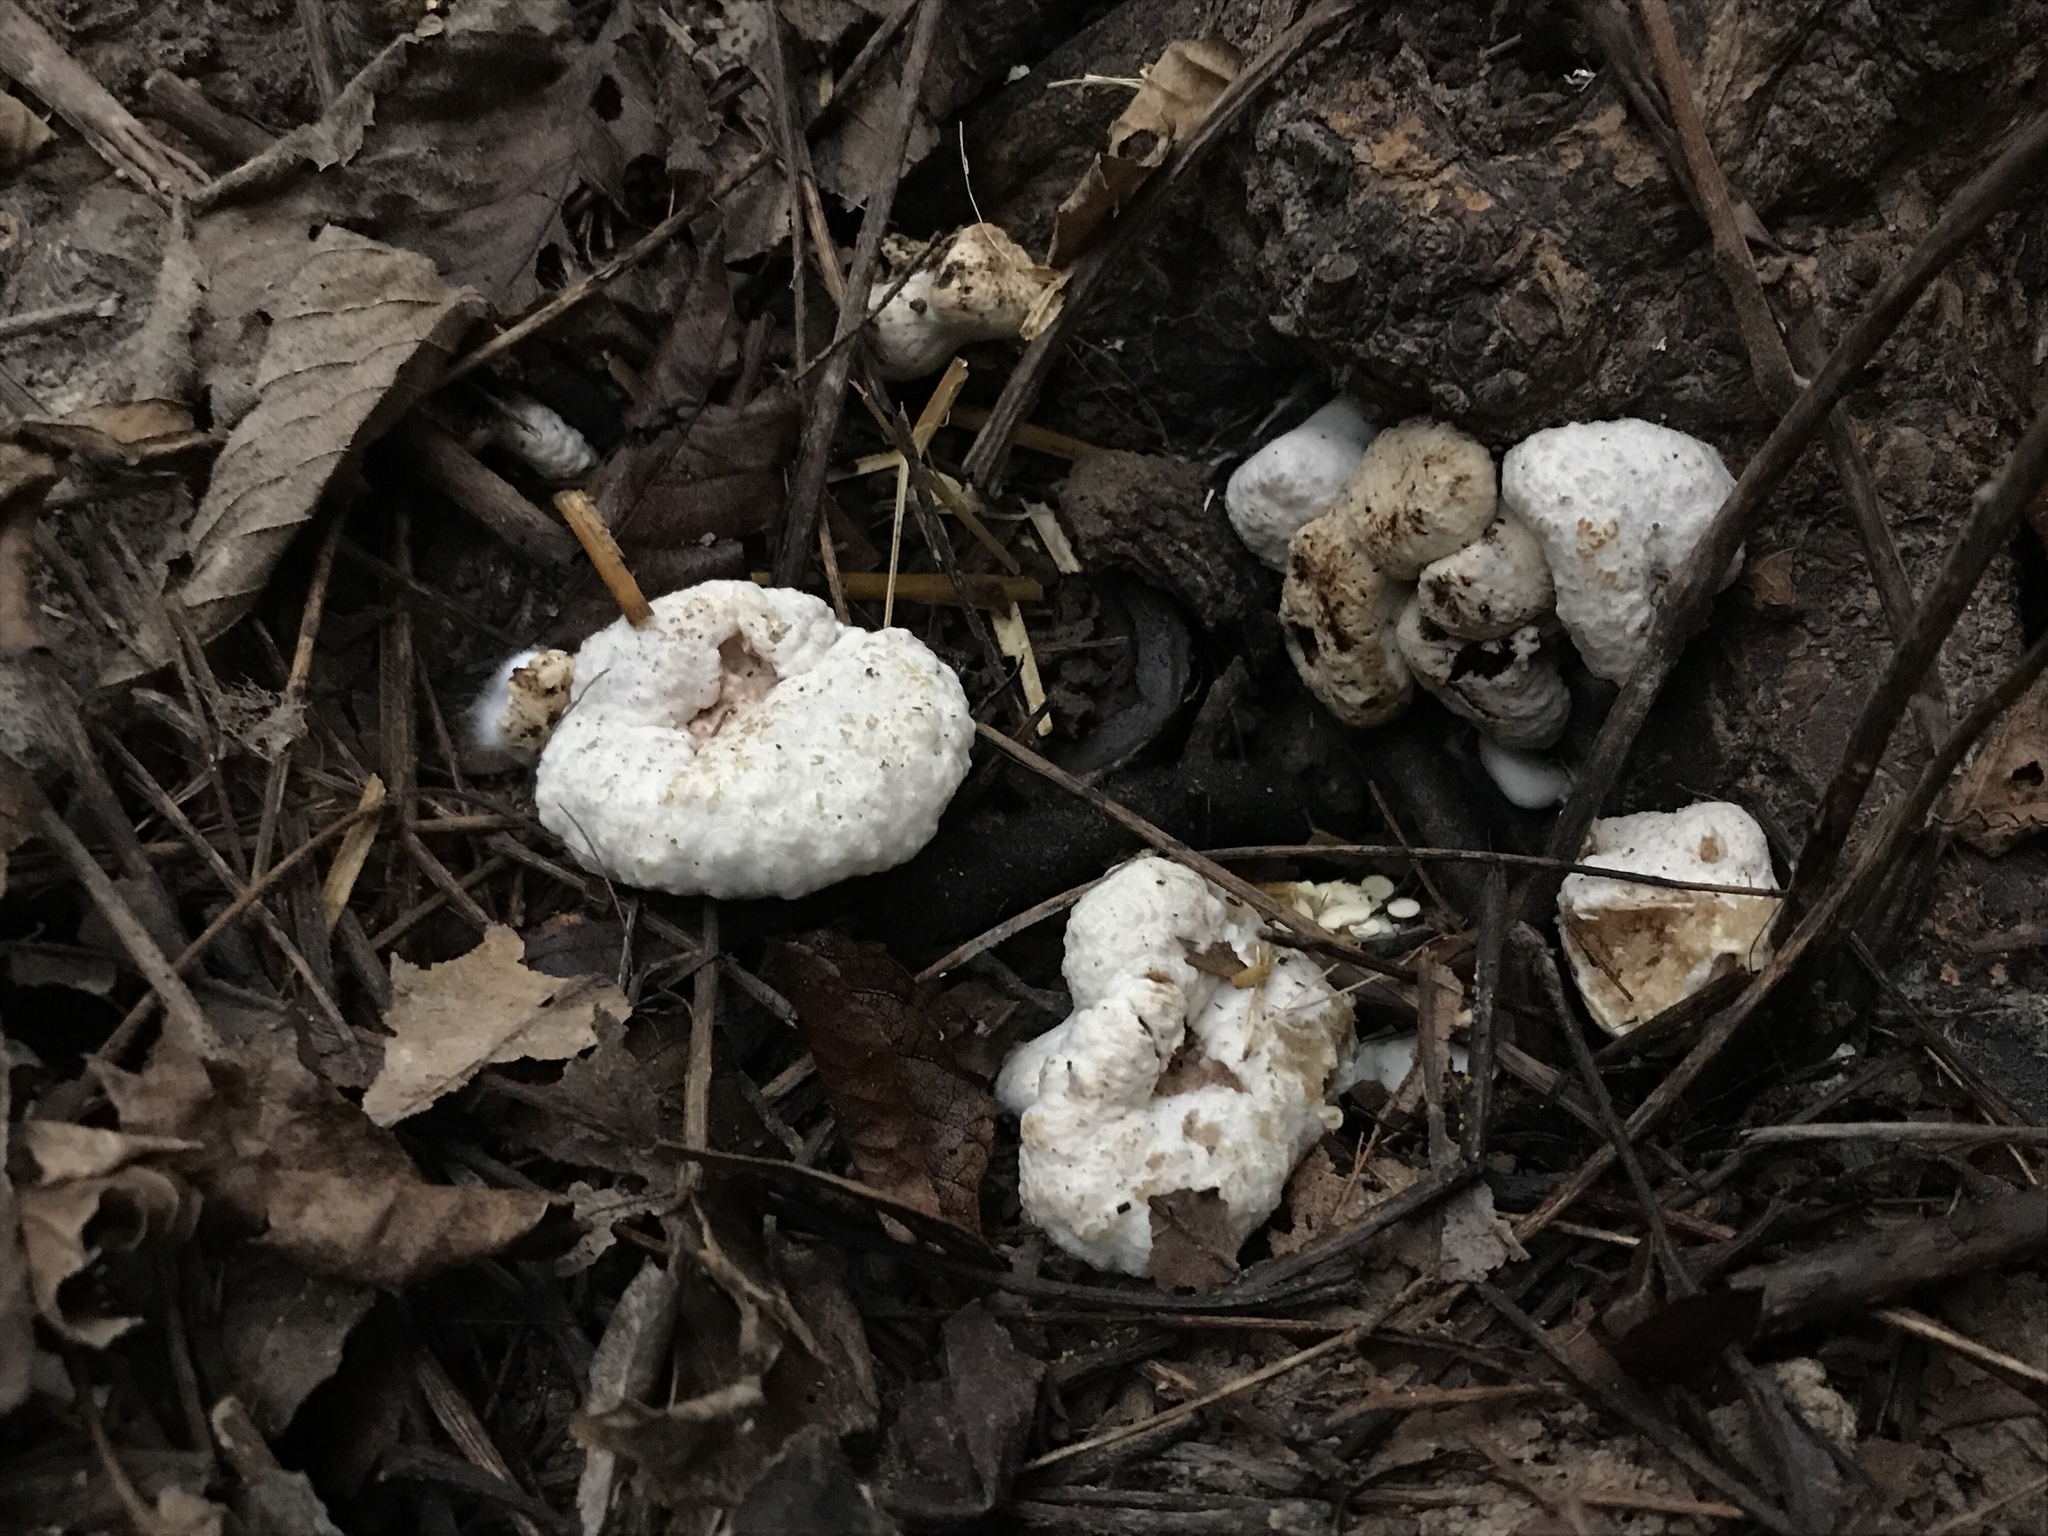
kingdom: Fungi
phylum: Basidiomycota
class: Agaricomycetes
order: Agaricales
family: Entolomataceae
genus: Entoloma
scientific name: Entoloma abortivum
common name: Aborted entoloma
